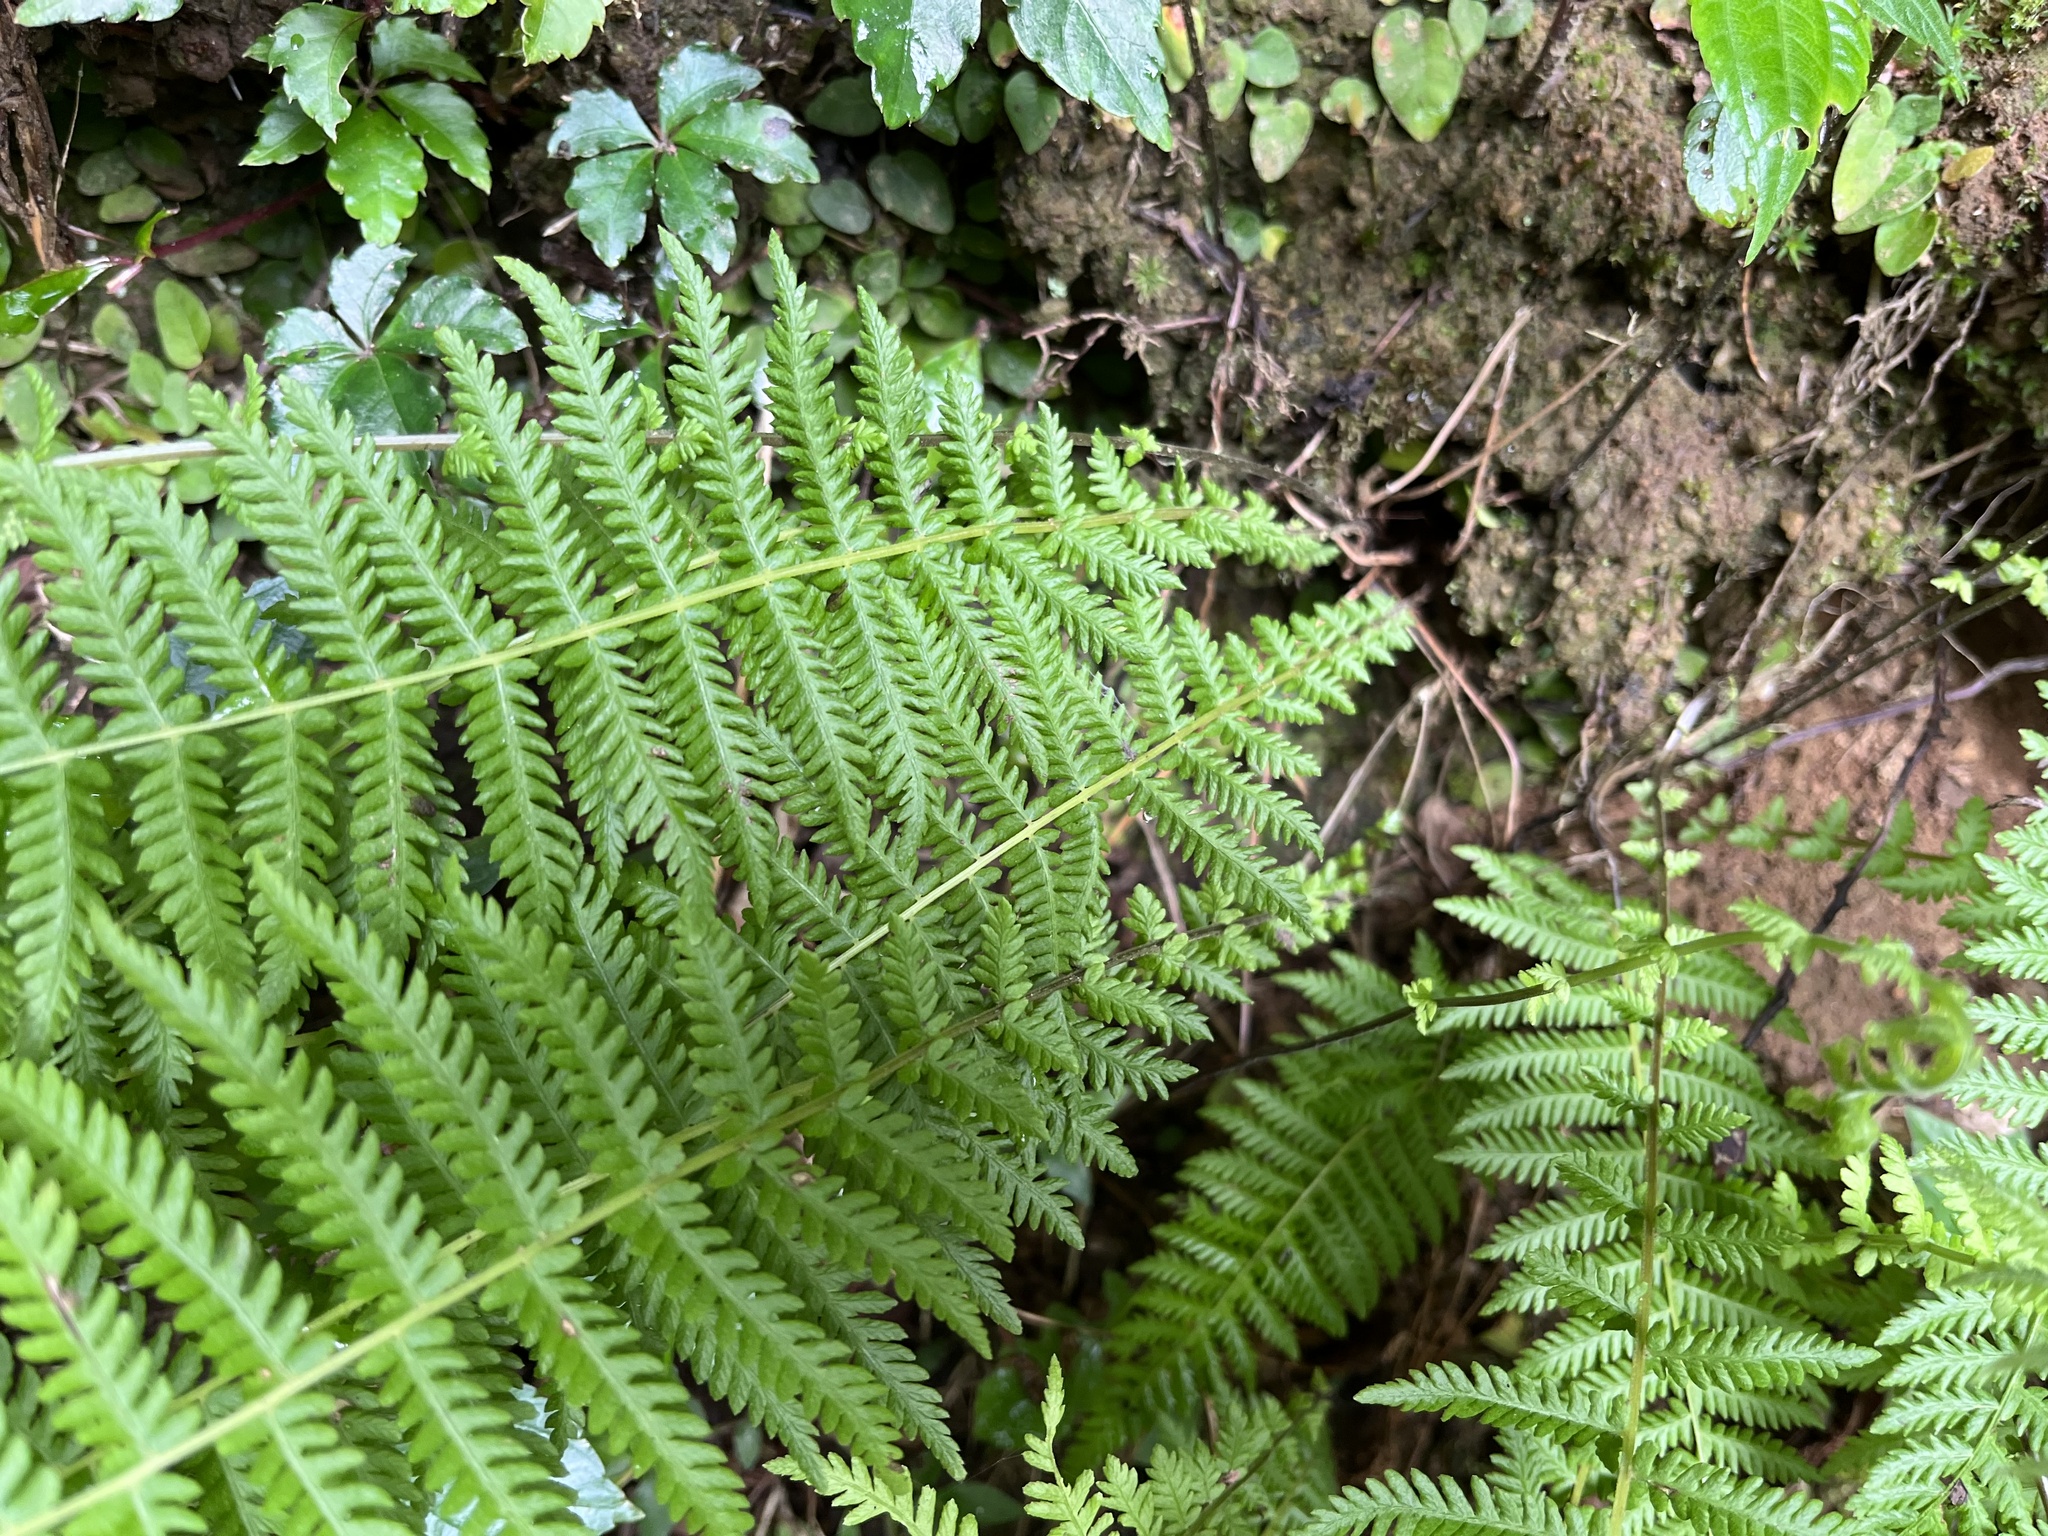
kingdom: Plantae
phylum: Tracheophyta
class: Polypodiopsida
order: Polypodiales
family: Thelypteridaceae
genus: Amauropelta
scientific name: Amauropelta beddomei
